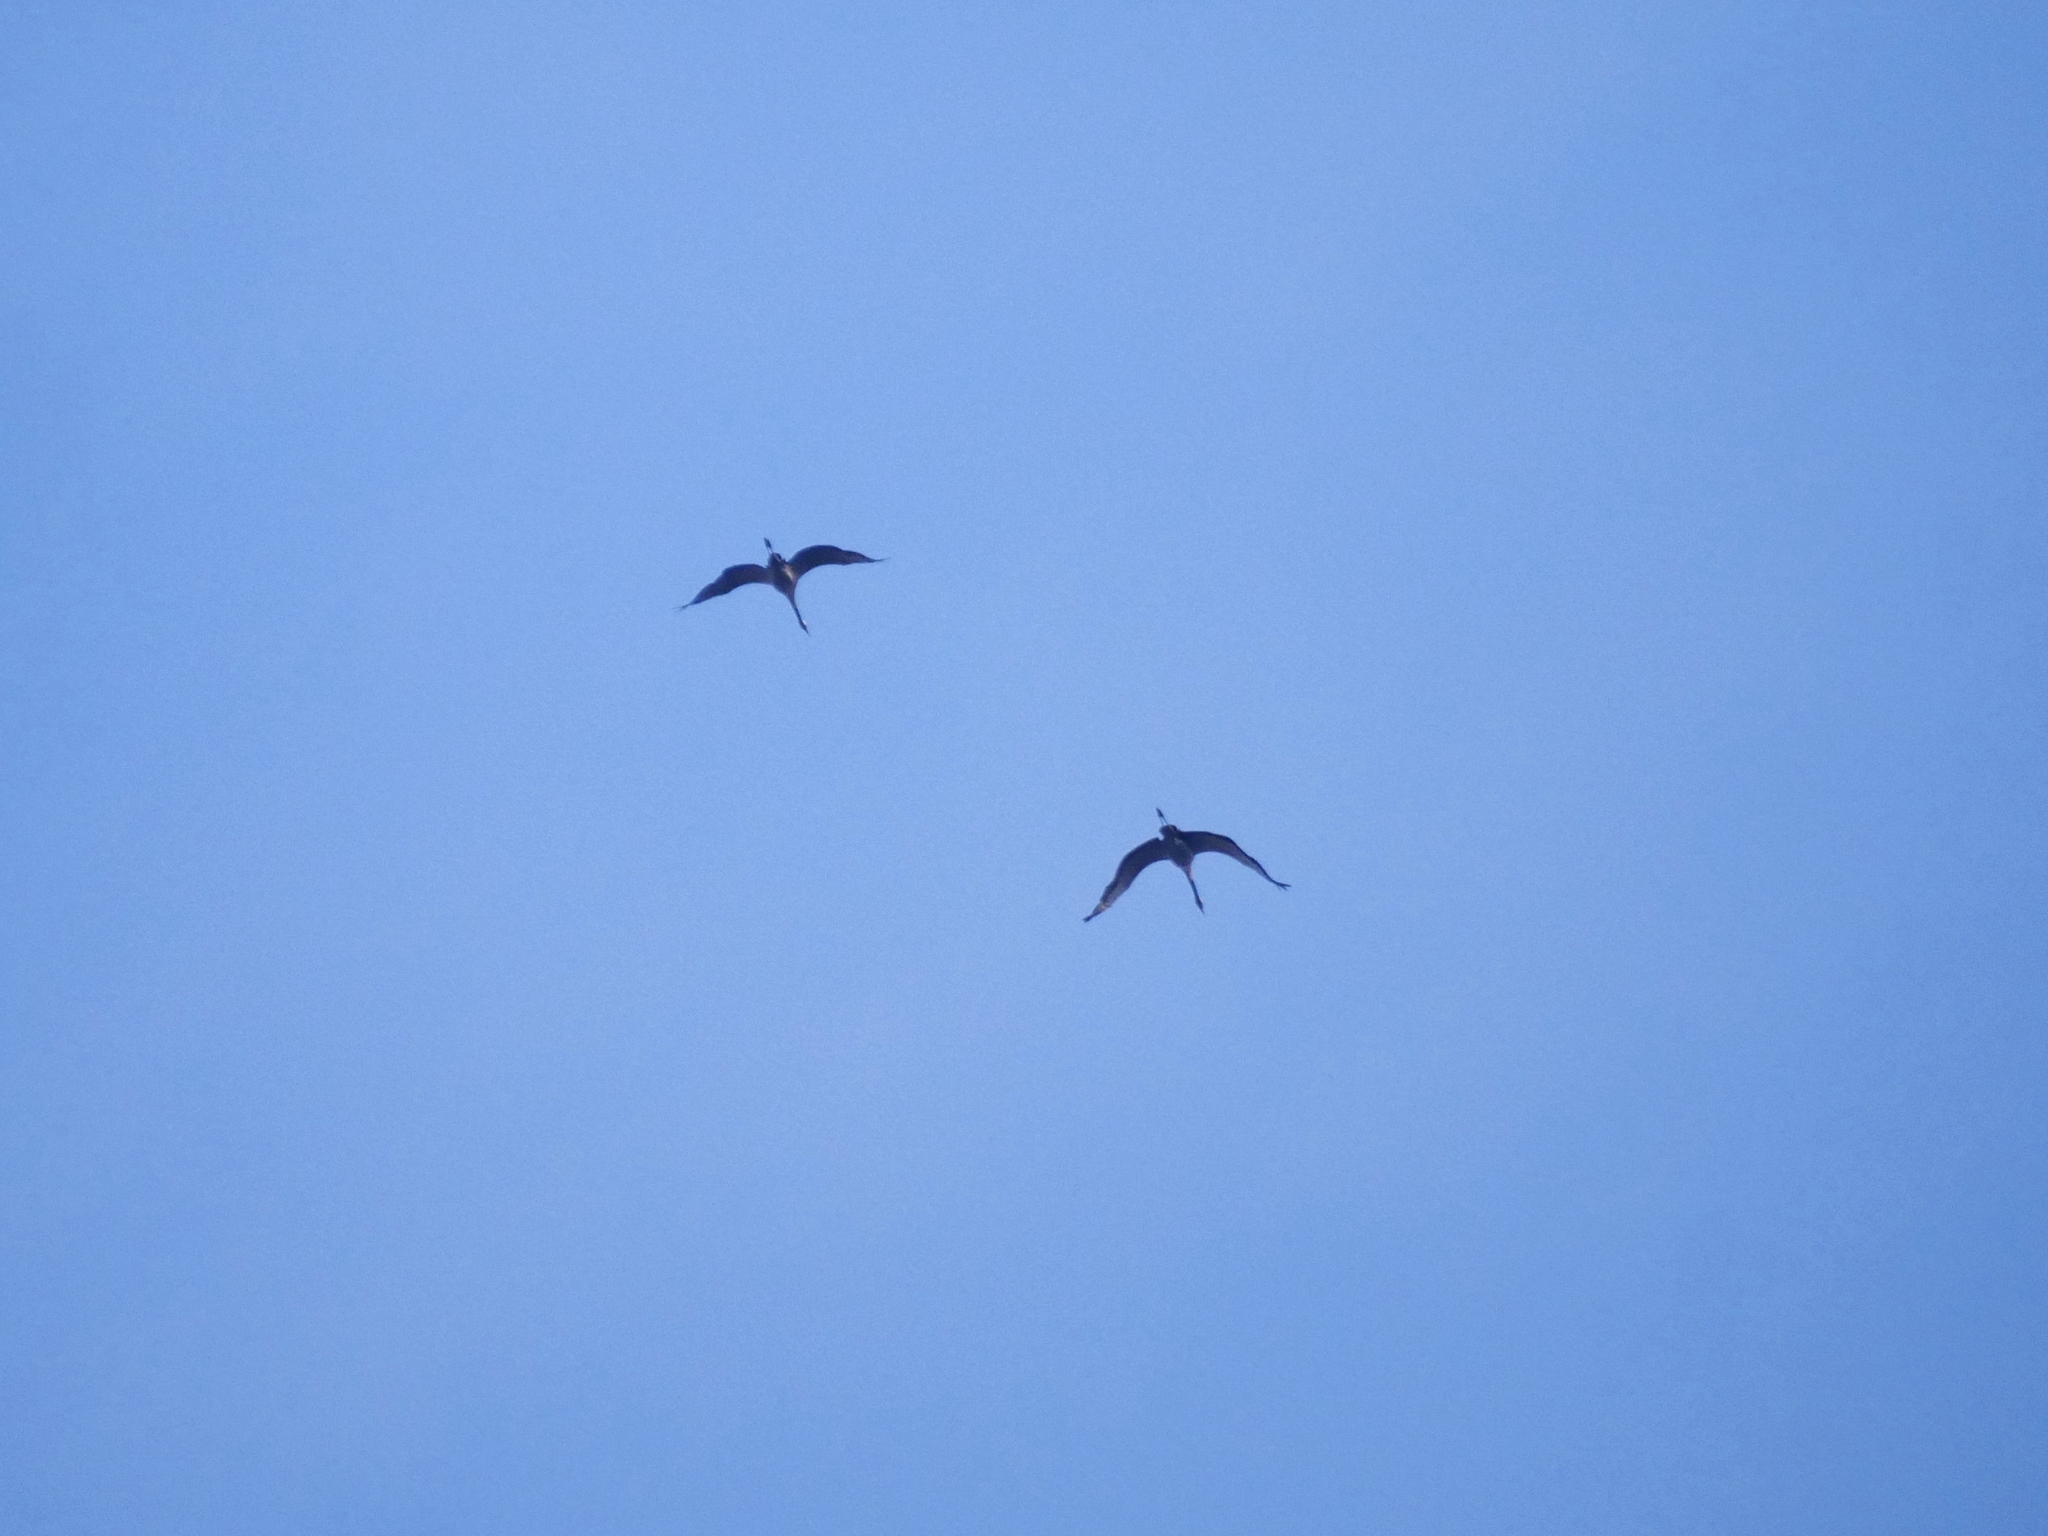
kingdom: Animalia
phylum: Chordata
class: Aves
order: Gruiformes
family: Gruidae
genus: Grus
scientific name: Grus grus
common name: Common crane
